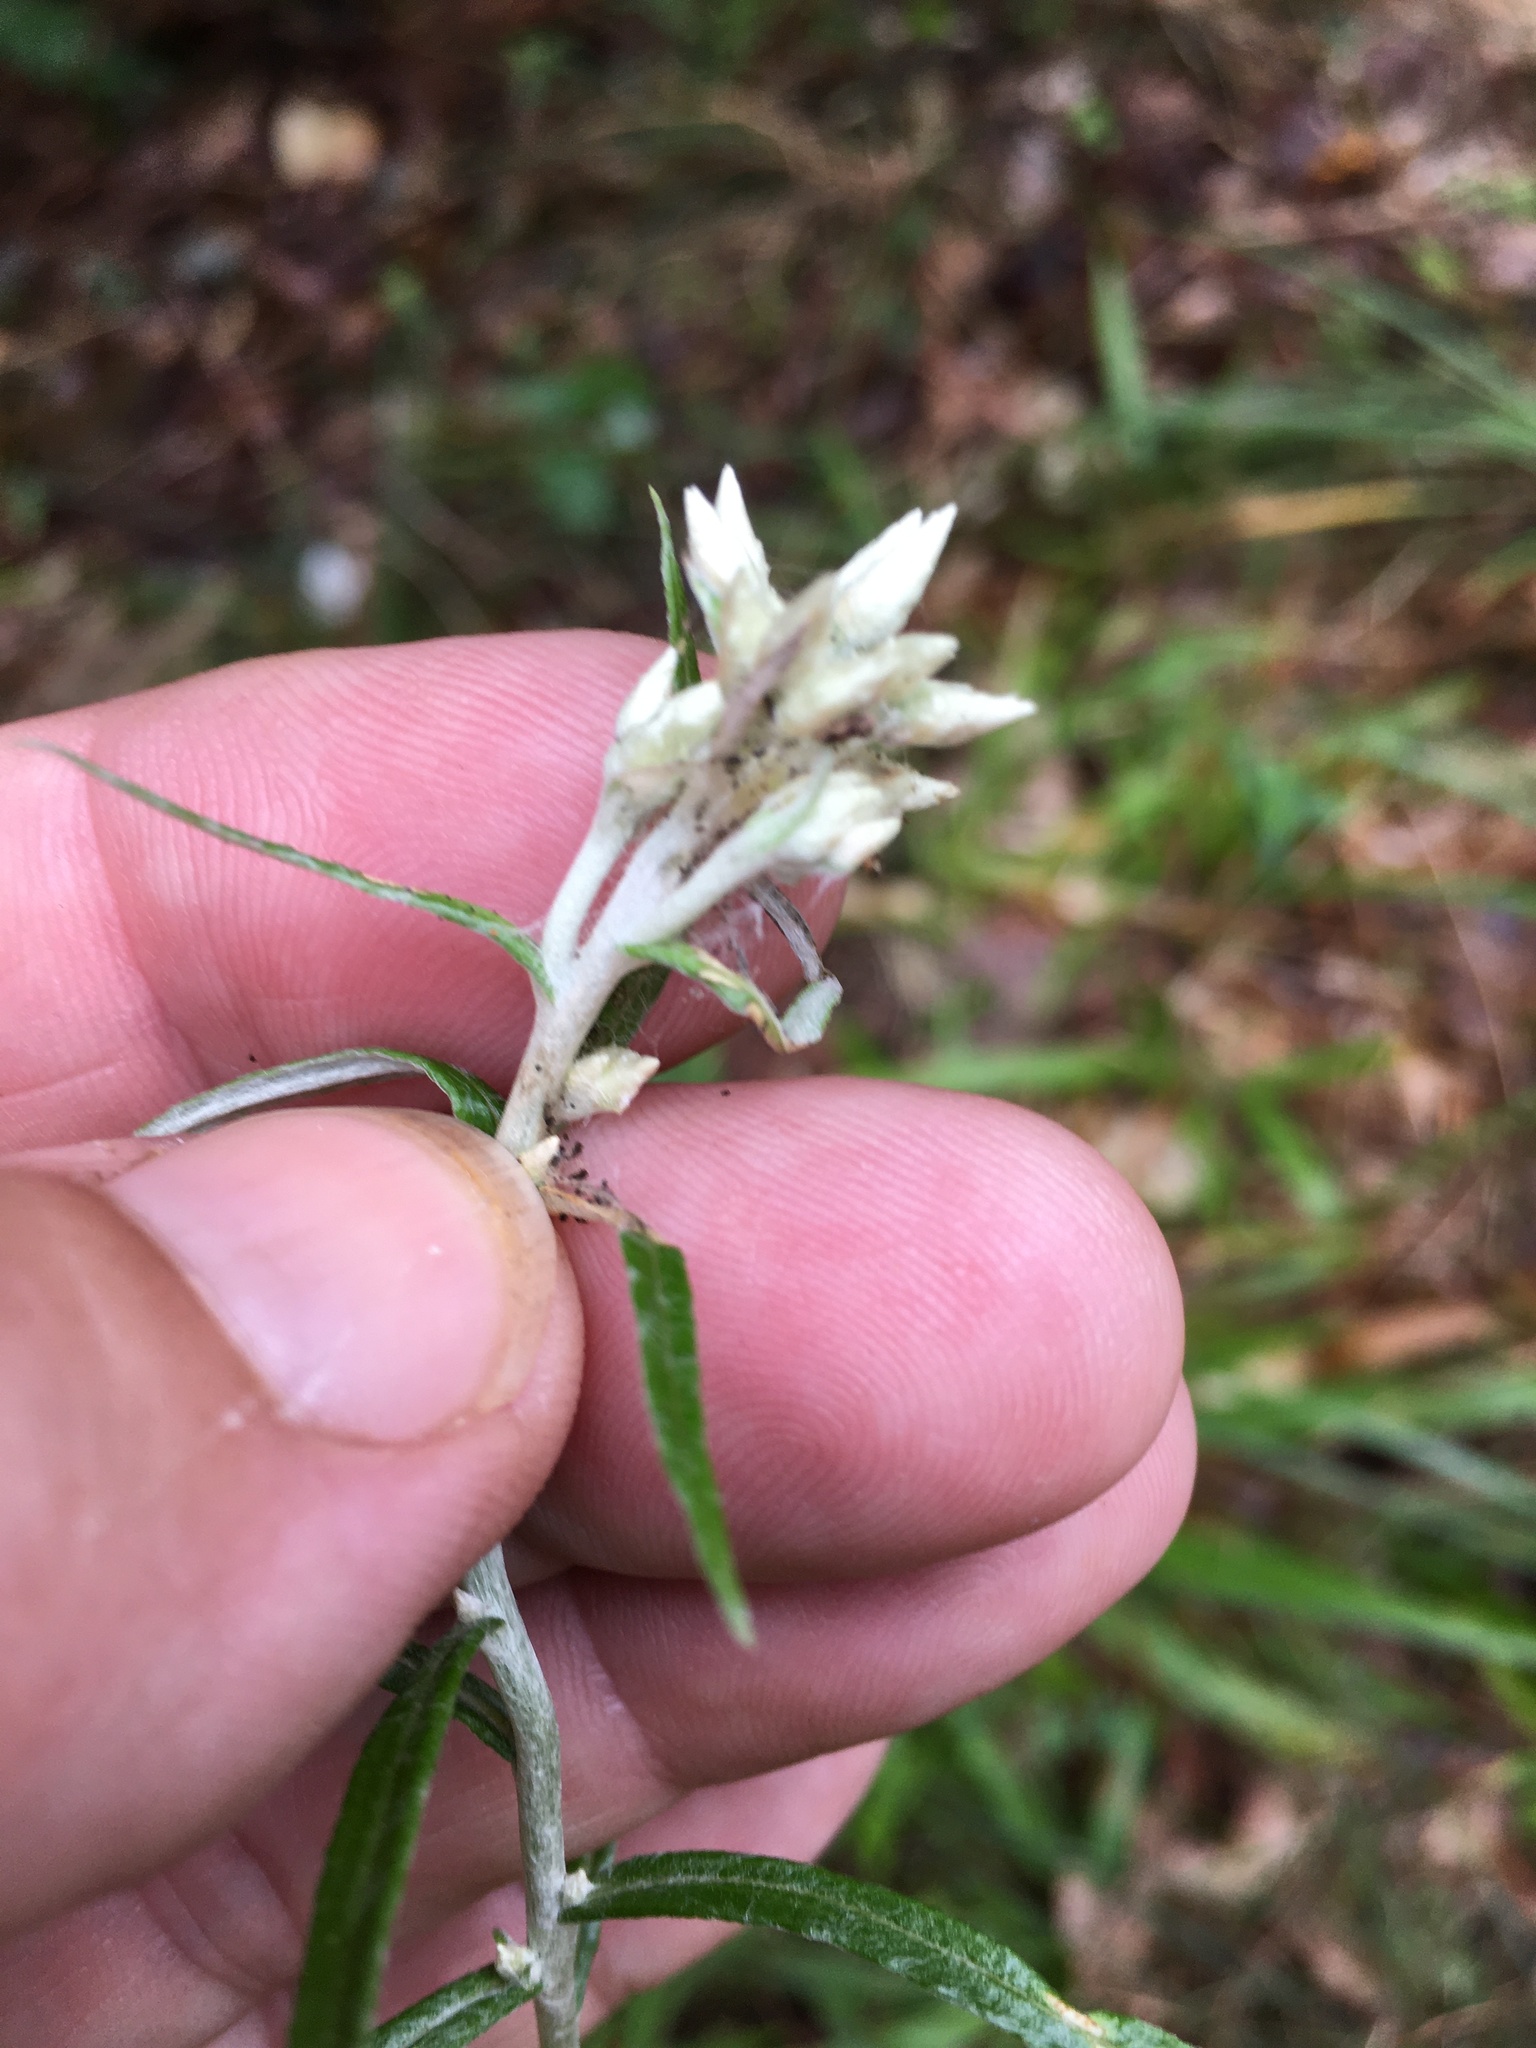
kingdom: Plantae
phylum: Tracheophyta
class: Magnoliopsida
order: Asterales
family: Asteraceae
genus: Pseudognaphalium
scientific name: Pseudognaphalium obtusifolium
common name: Eastern rabbit-tobacco
